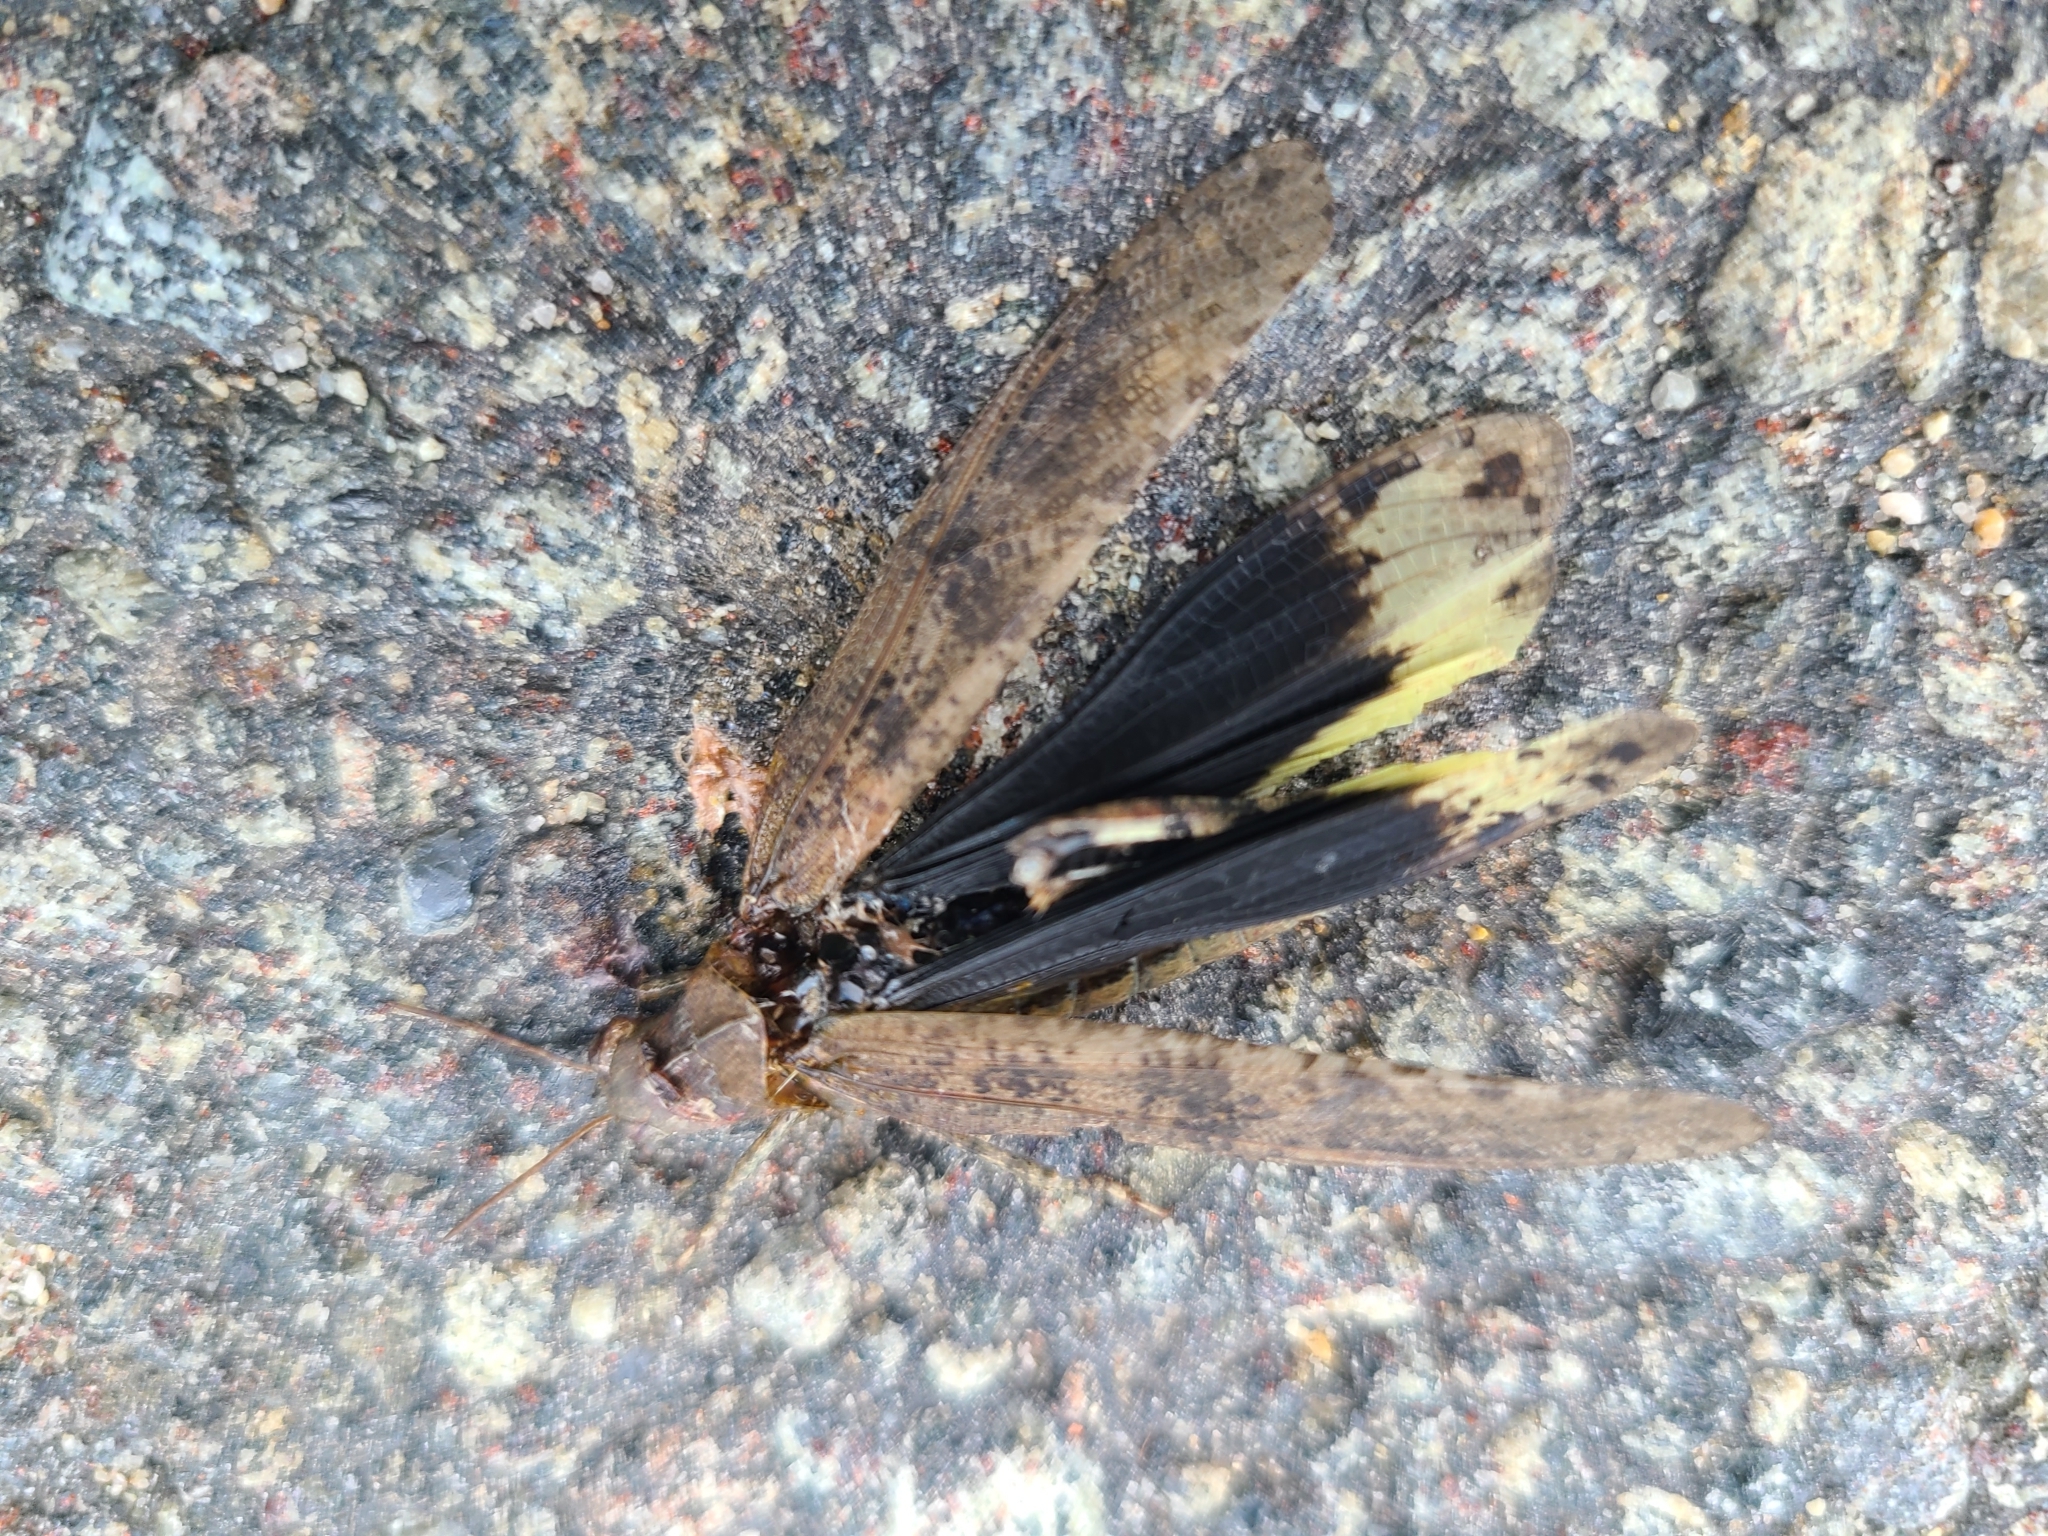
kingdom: Animalia
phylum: Arthropoda
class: Insecta
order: Orthoptera
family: Acrididae
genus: Dissosteira
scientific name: Dissosteira carolina
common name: Carolina grasshopper
